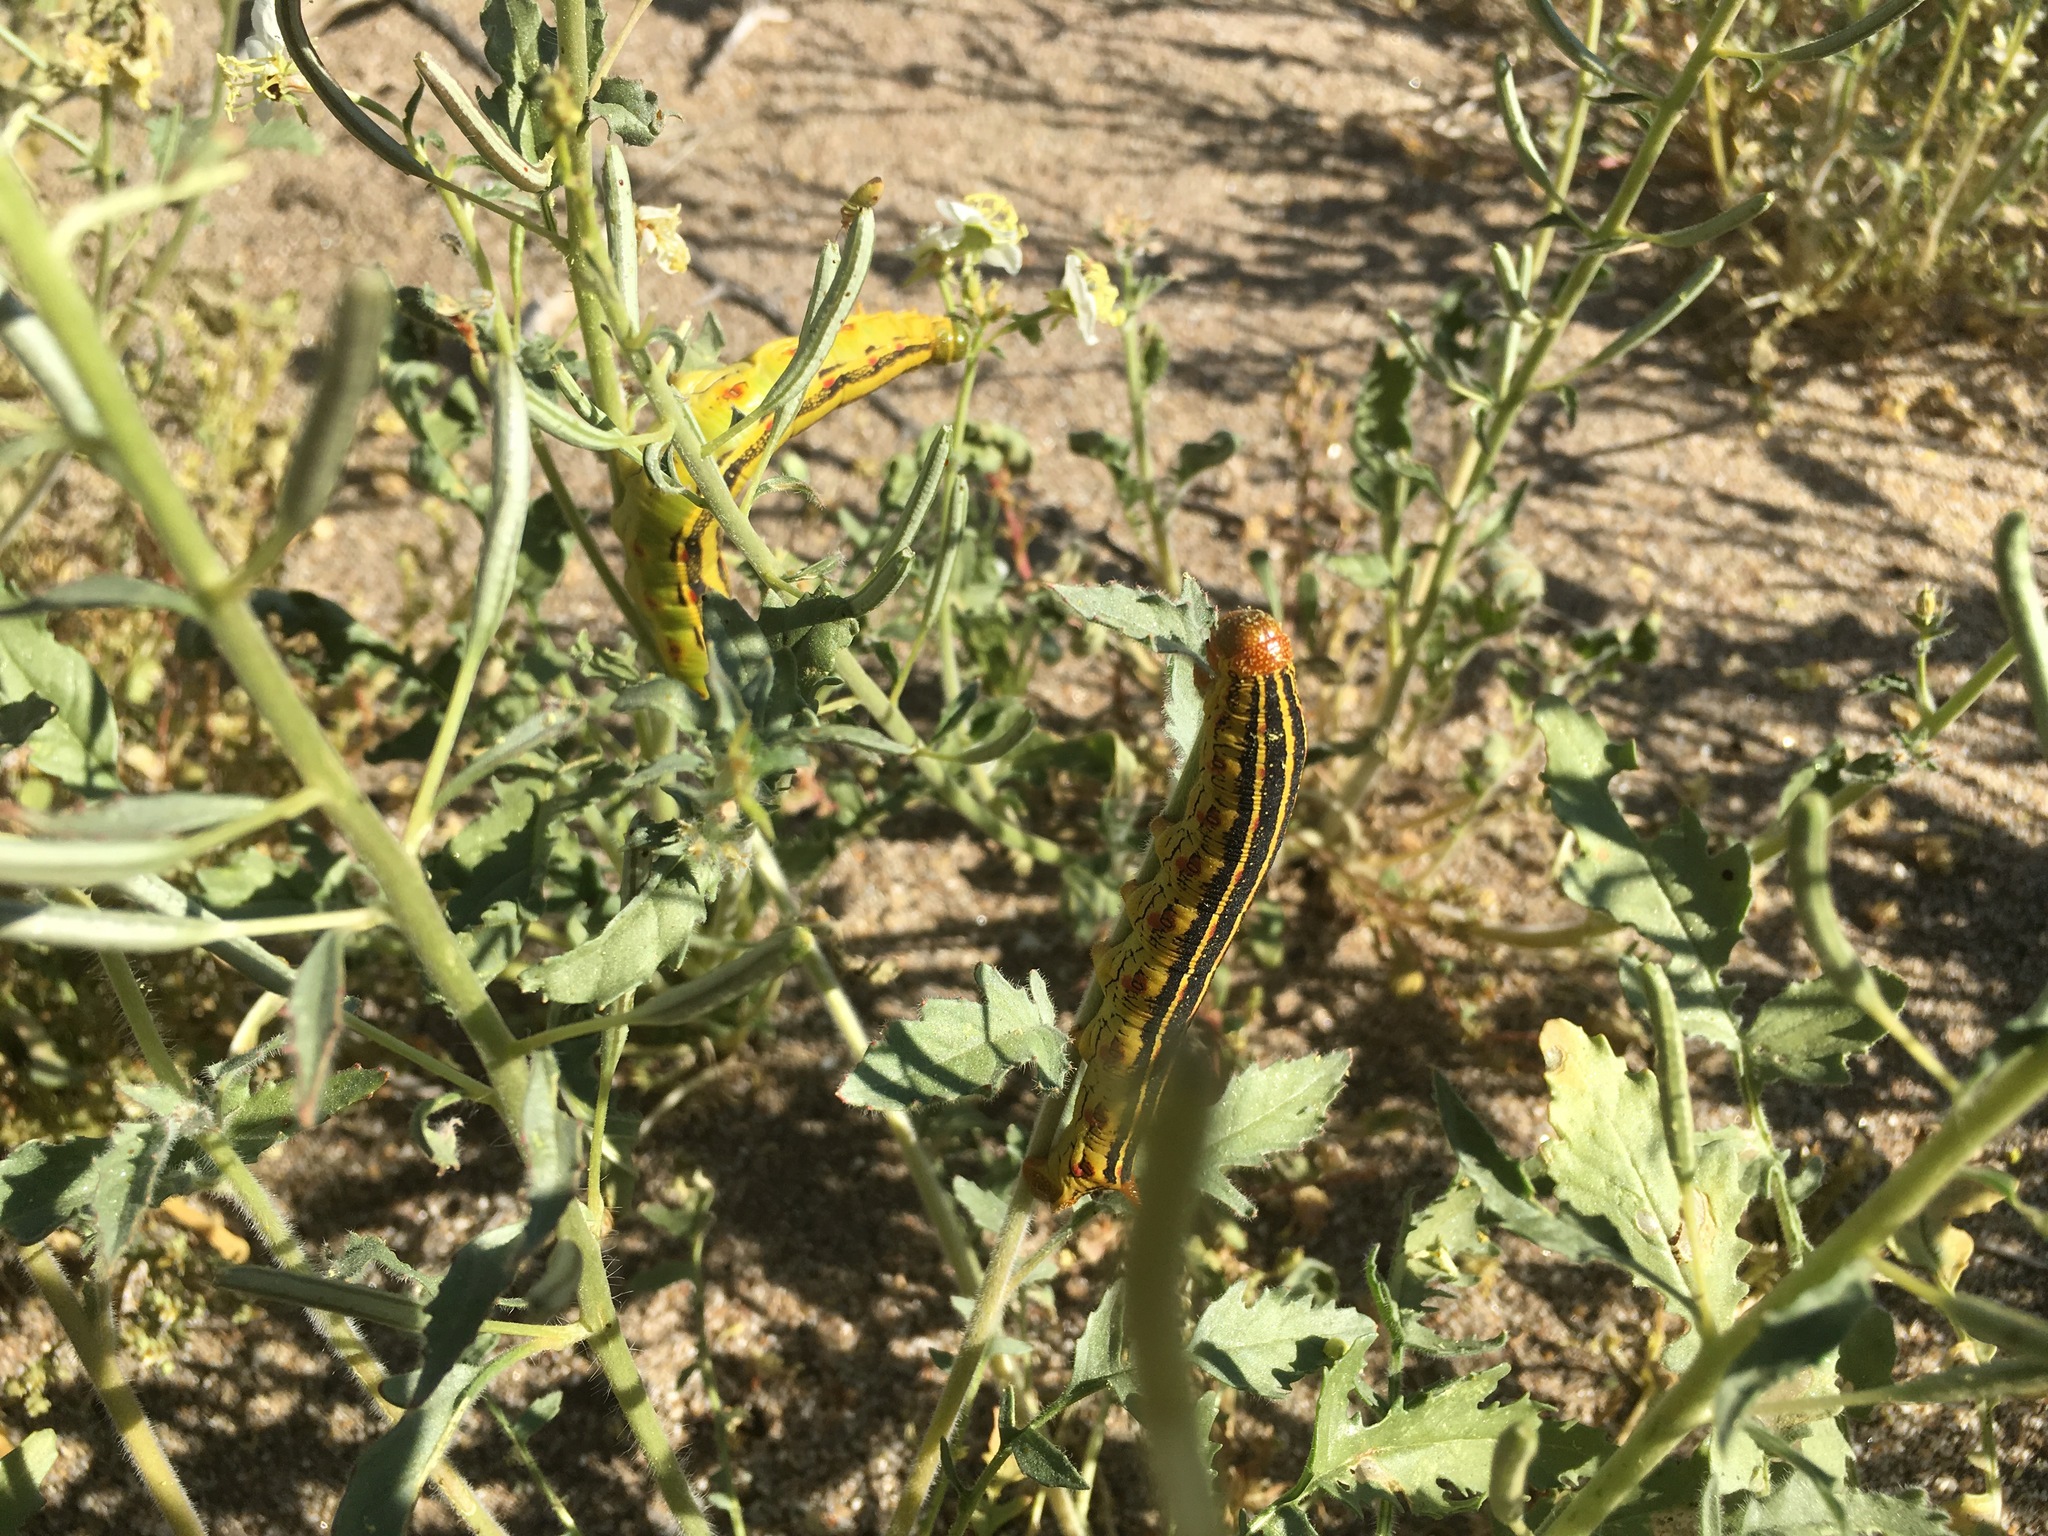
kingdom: Animalia
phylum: Arthropoda
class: Insecta
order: Lepidoptera
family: Sphingidae
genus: Hyles
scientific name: Hyles lineata
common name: White-lined sphinx
